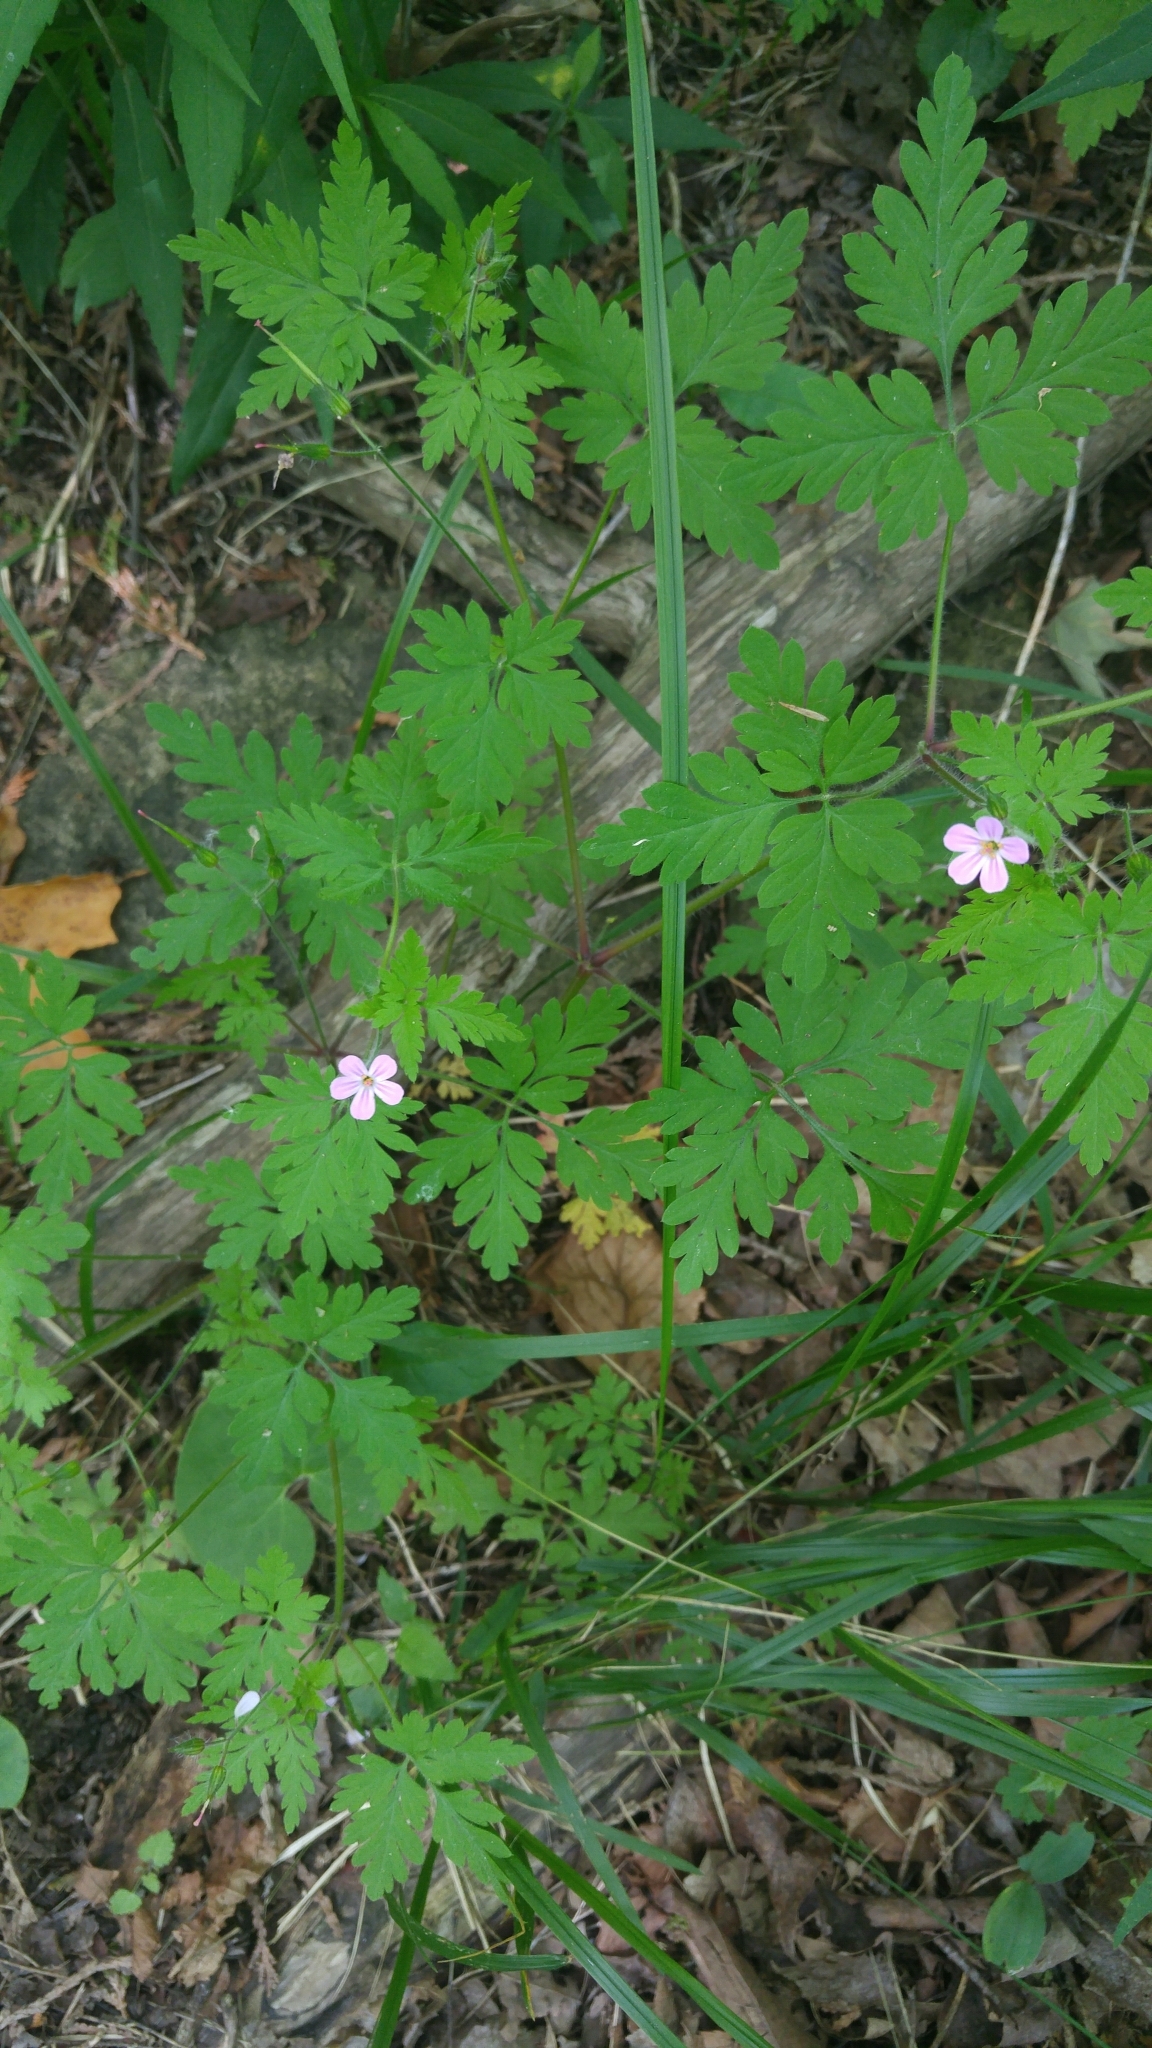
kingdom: Plantae
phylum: Tracheophyta
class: Magnoliopsida
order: Geraniales
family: Geraniaceae
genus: Geranium
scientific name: Geranium robertianum
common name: Herb-robert
